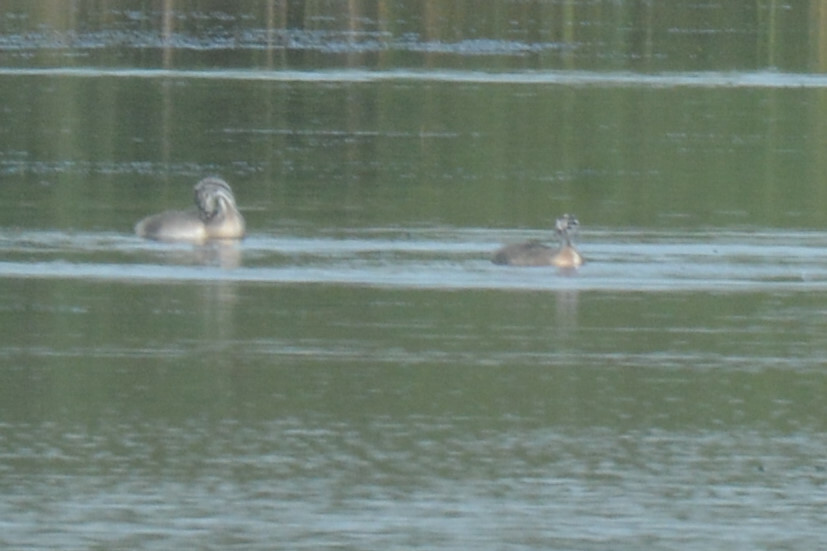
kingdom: Animalia
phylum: Chordata
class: Aves
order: Podicipediformes
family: Podicipedidae
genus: Podiceps
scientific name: Podiceps cristatus
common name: Great crested grebe
